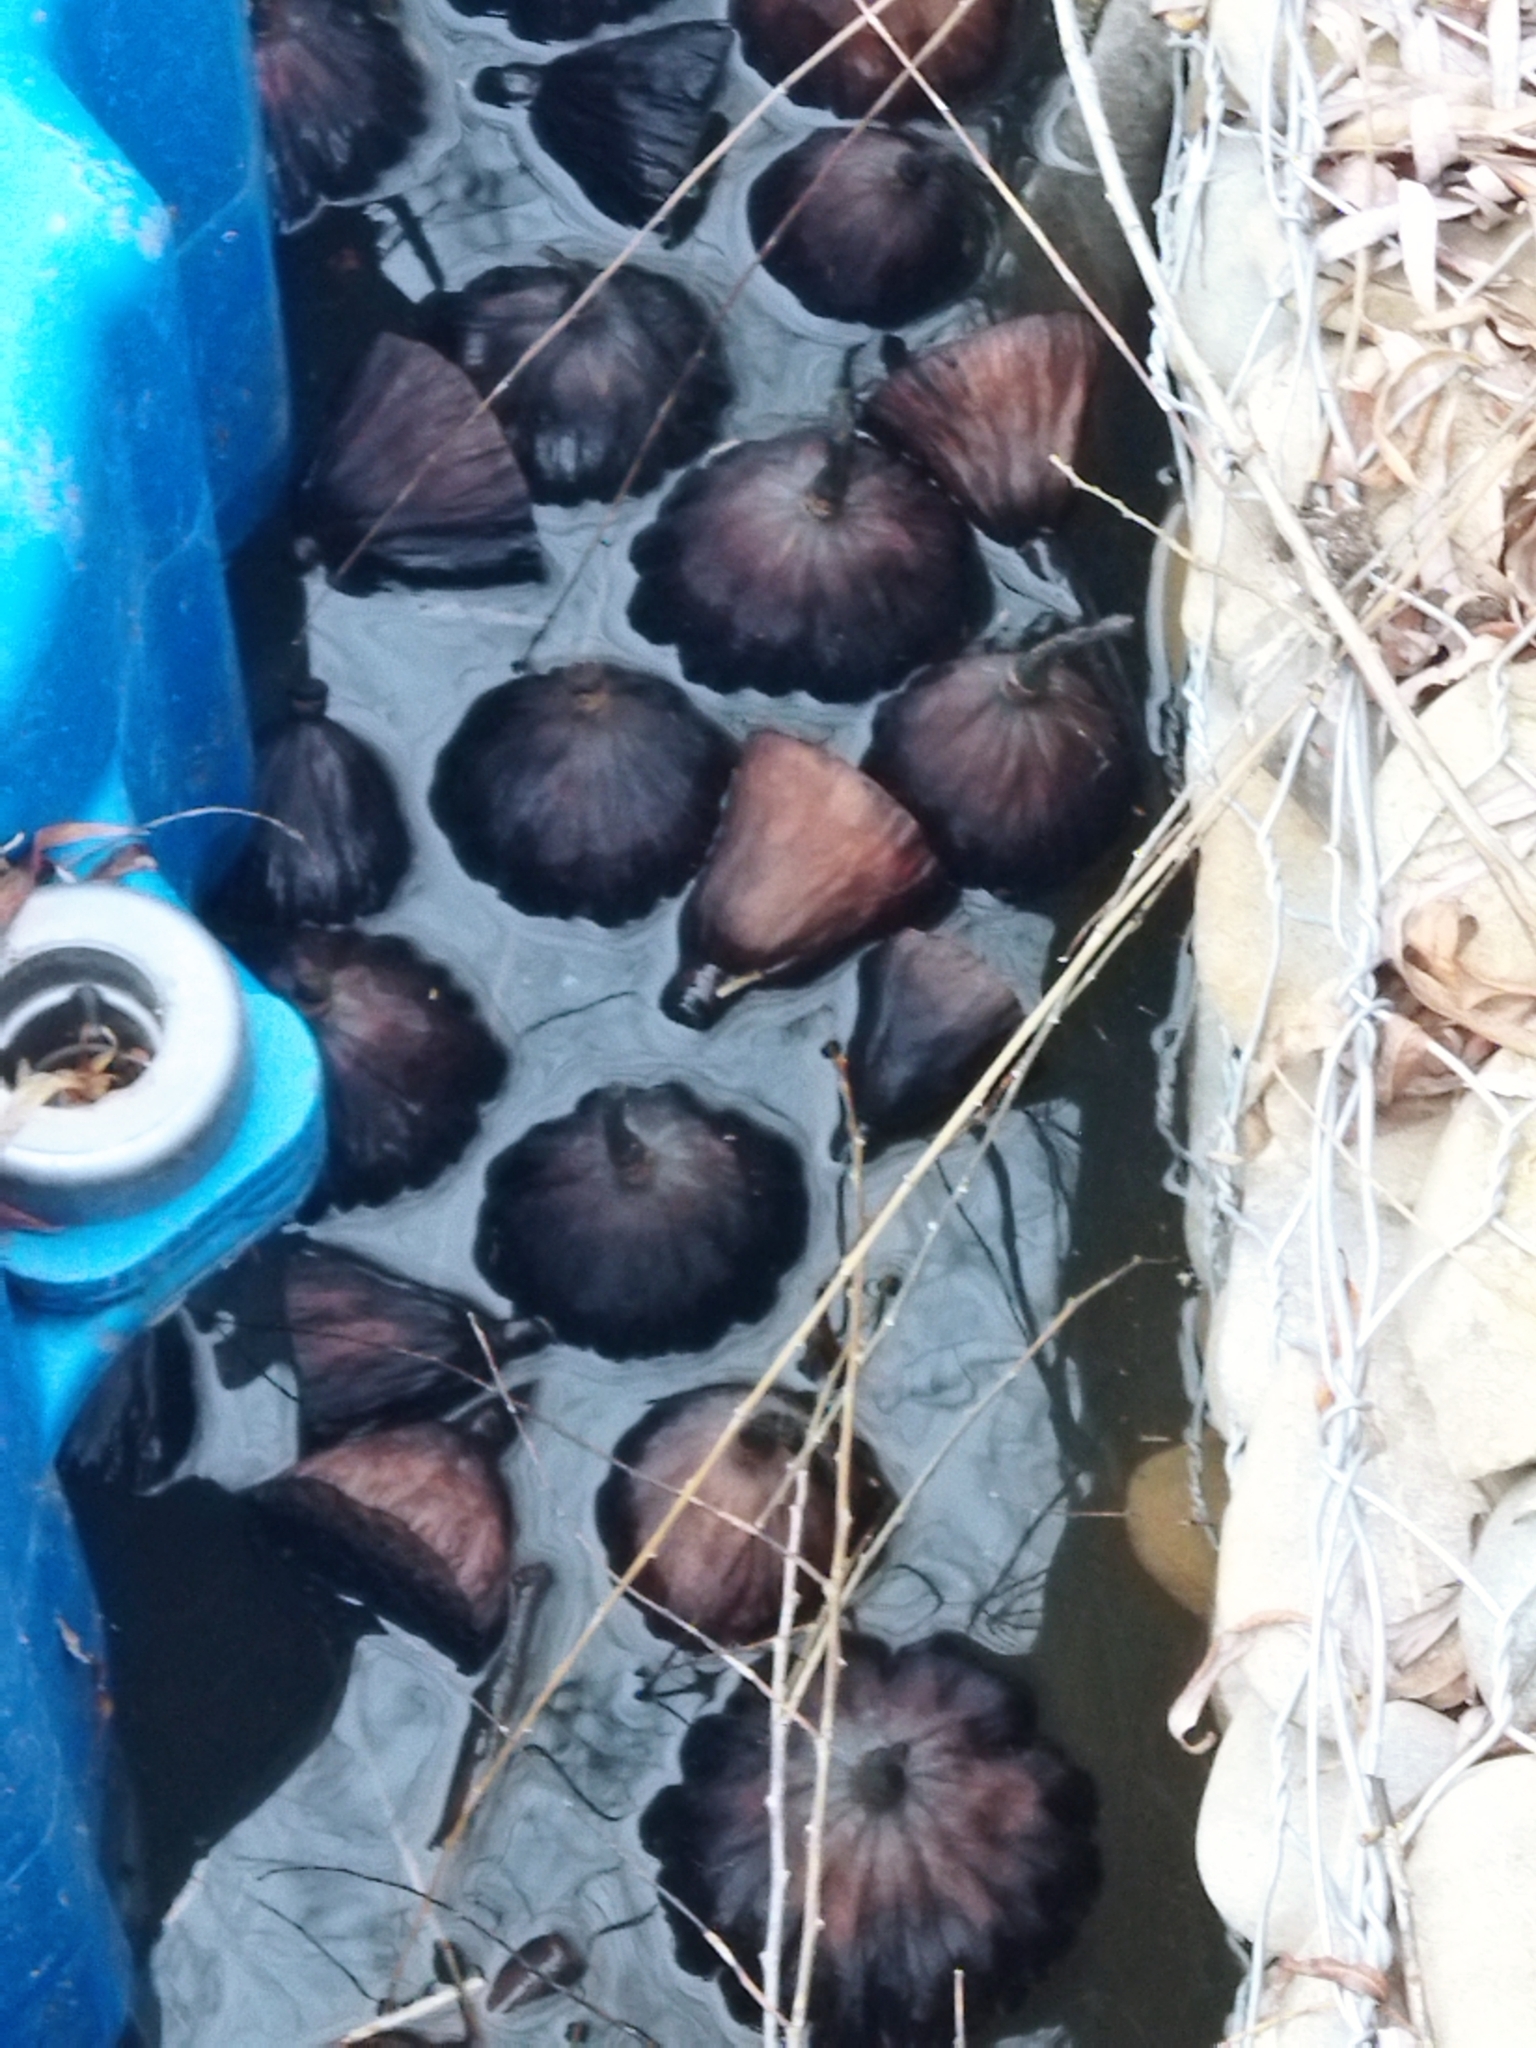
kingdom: Plantae
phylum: Tracheophyta
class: Magnoliopsida
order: Proteales
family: Nelumbonaceae
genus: Nelumbo
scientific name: Nelumbo nucifera
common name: Sacred lotus
